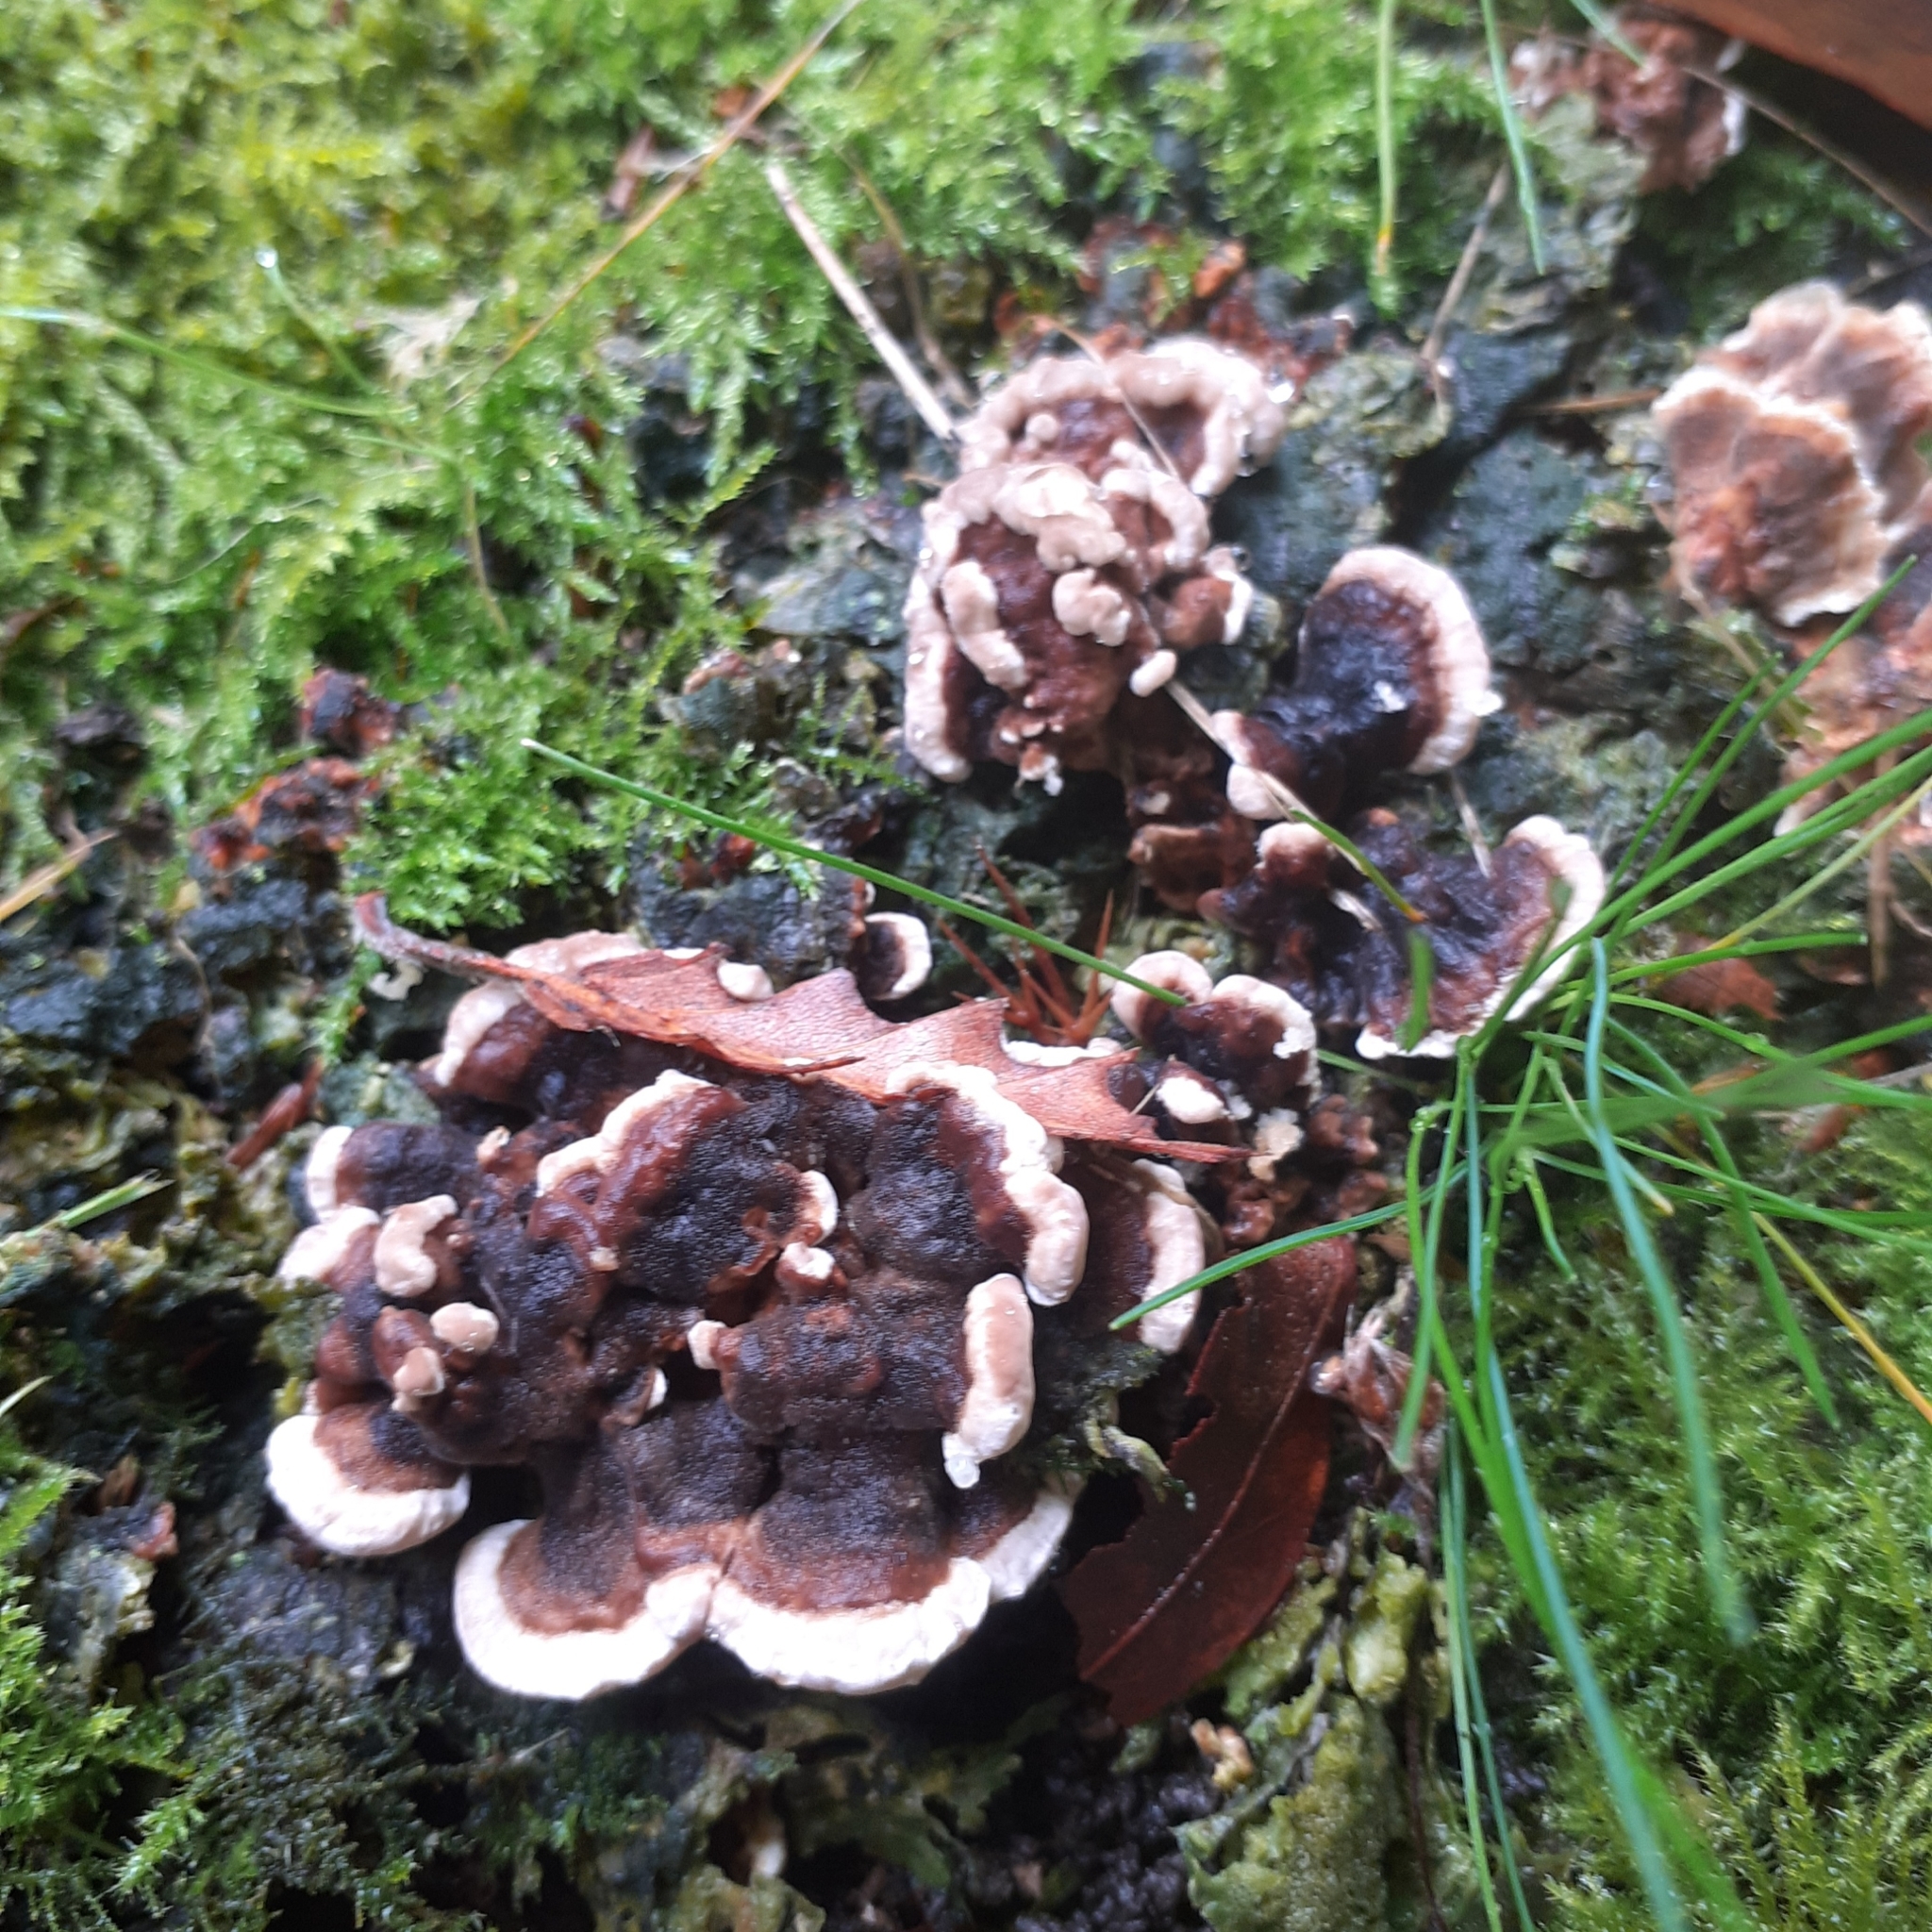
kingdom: Fungi
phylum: Basidiomycota
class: Agaricomycetes
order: Polyporales
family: Polyporaceae
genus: Trametes
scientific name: Trametes versicolor
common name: Turkeytail
